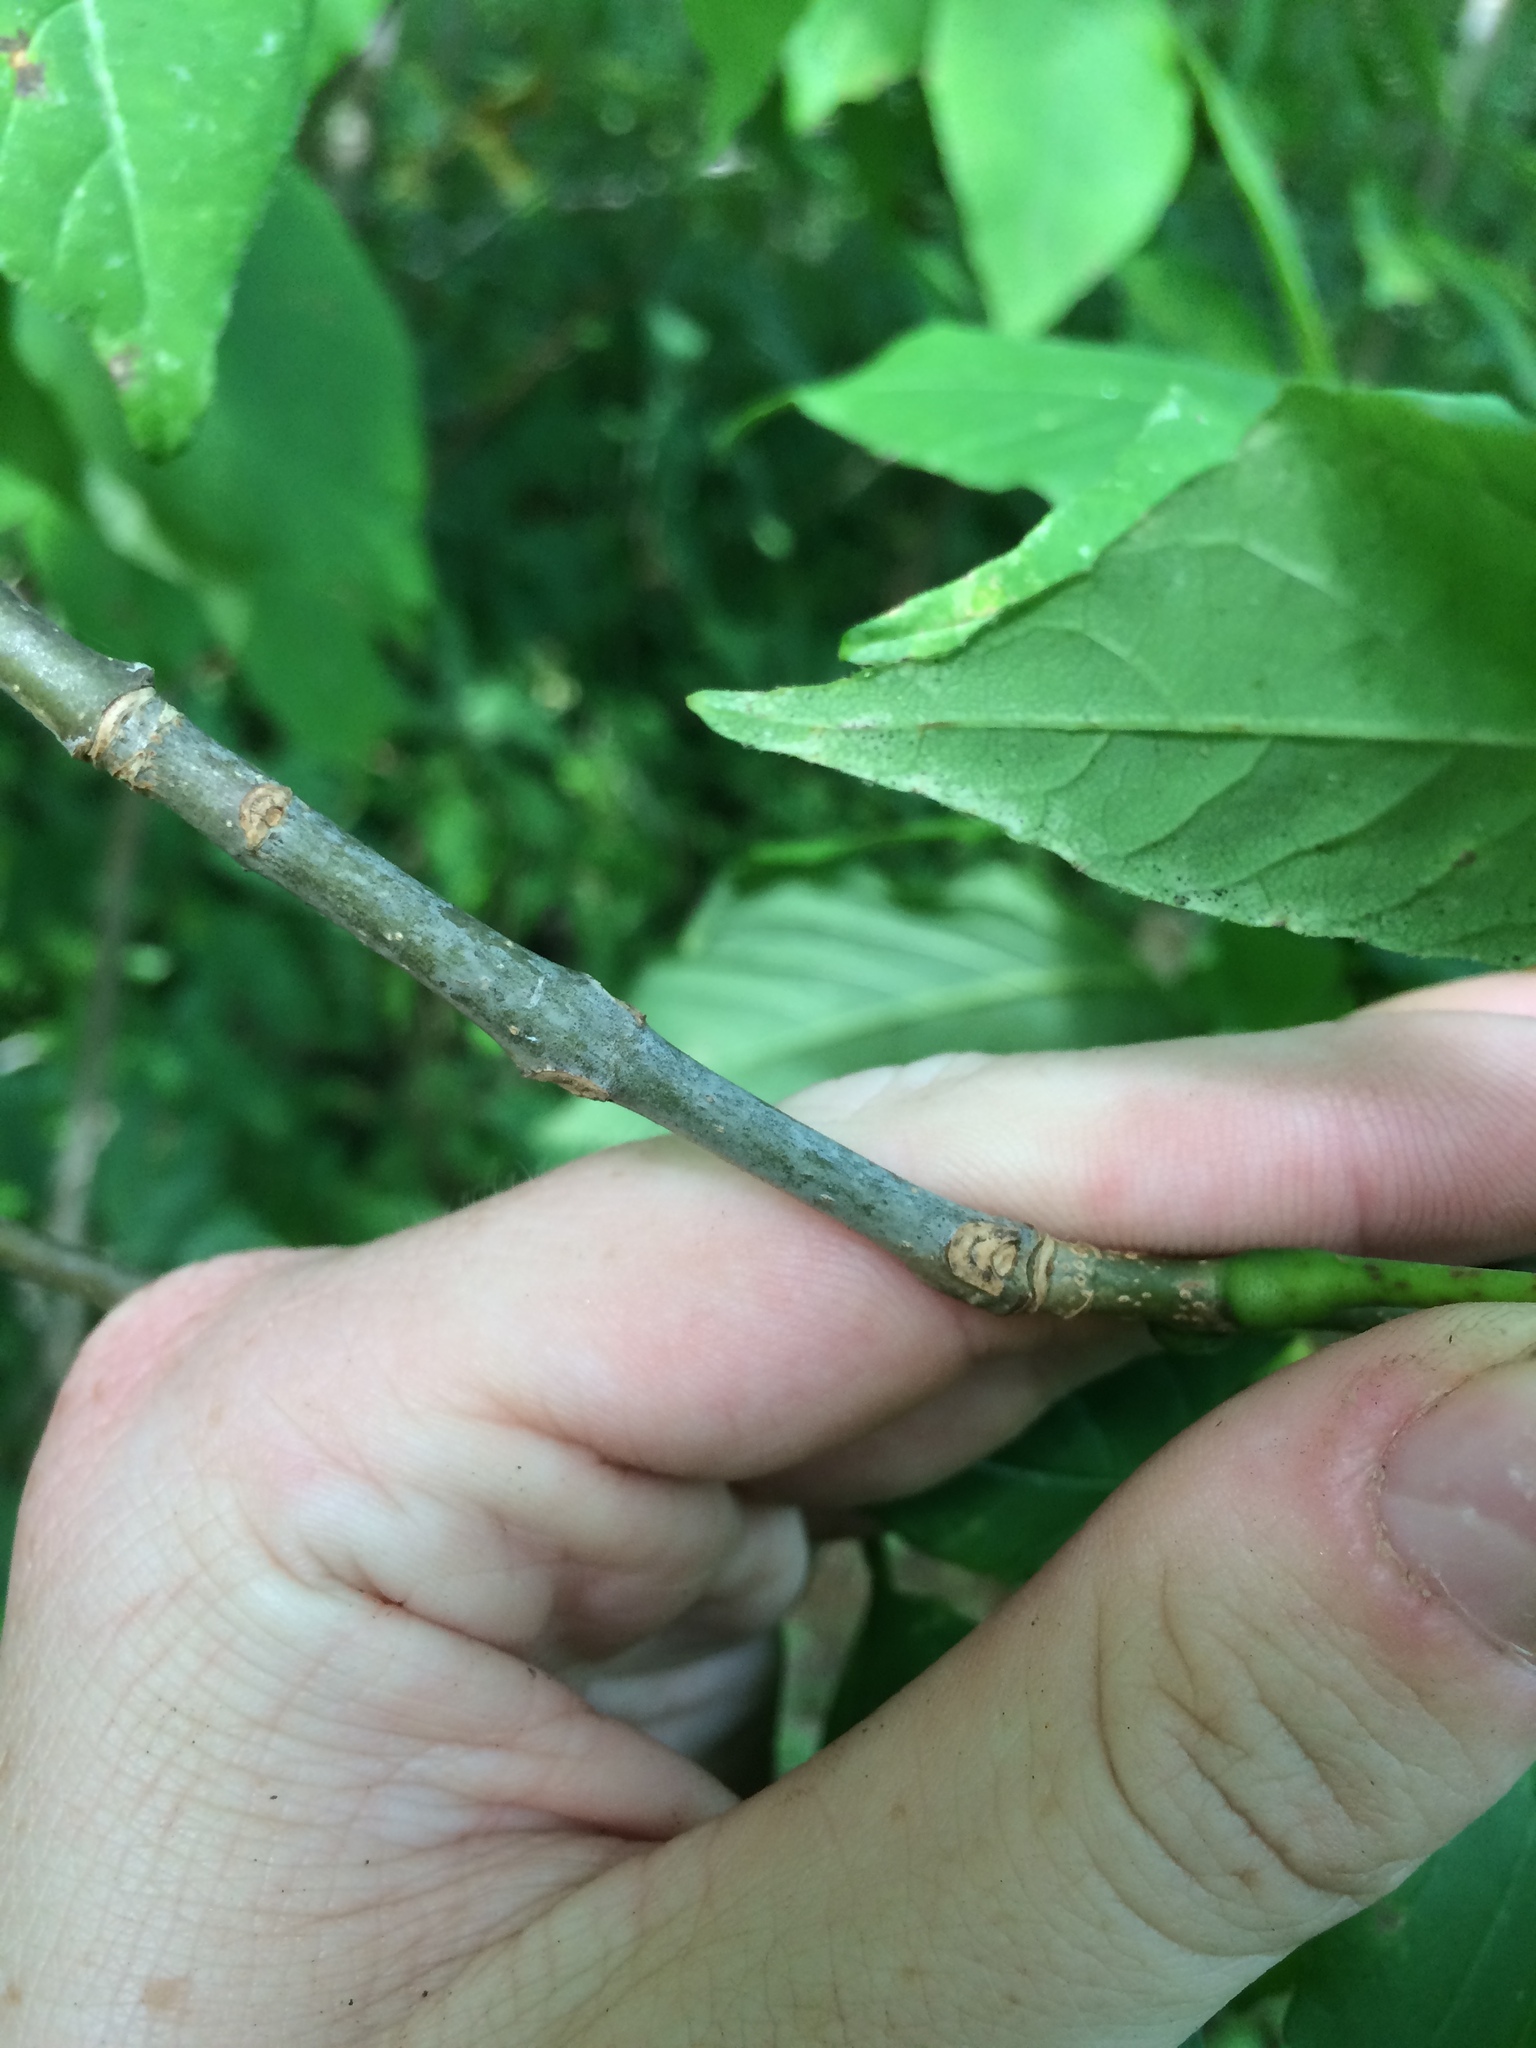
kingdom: Plantae
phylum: Tracheophyta
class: Magnoliopsida
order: Lamiales
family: Oleaceae
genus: Fraxinus
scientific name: Fraxinus americana
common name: White ash
